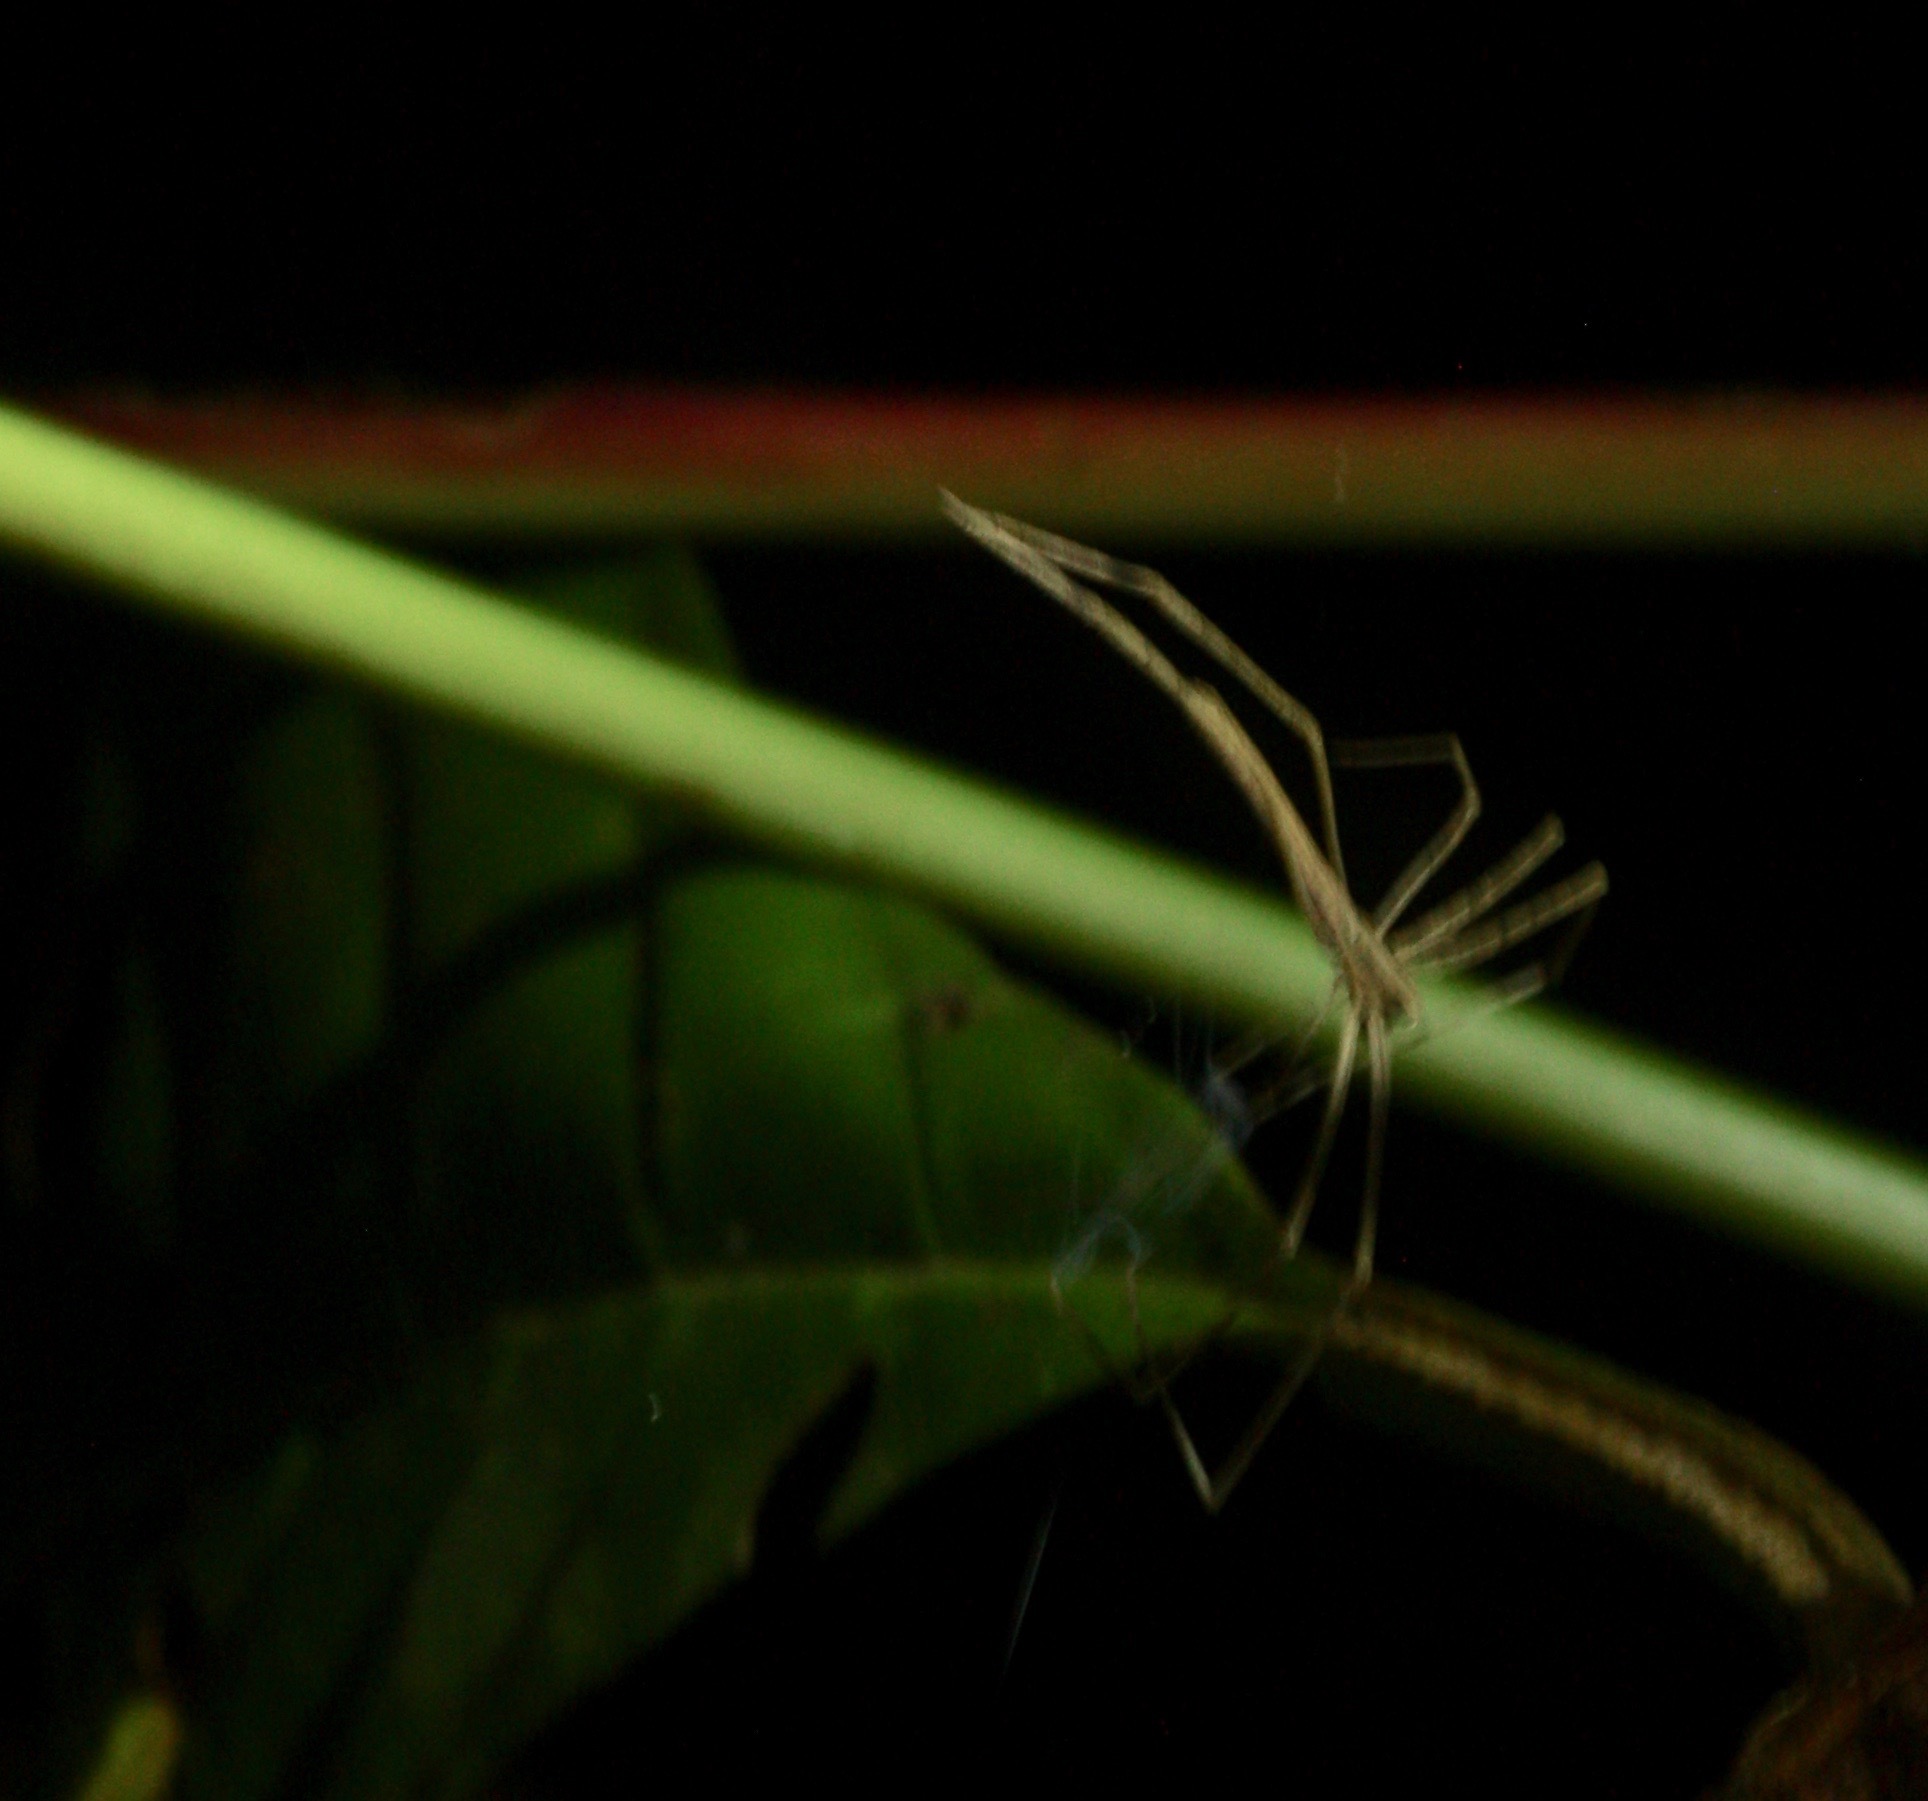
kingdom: Animalia
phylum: Arthropoda
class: Arachnida
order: Araneae
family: Deinopidae
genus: Deinopis
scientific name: Deinopis longipes
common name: Ogre faced spiders
